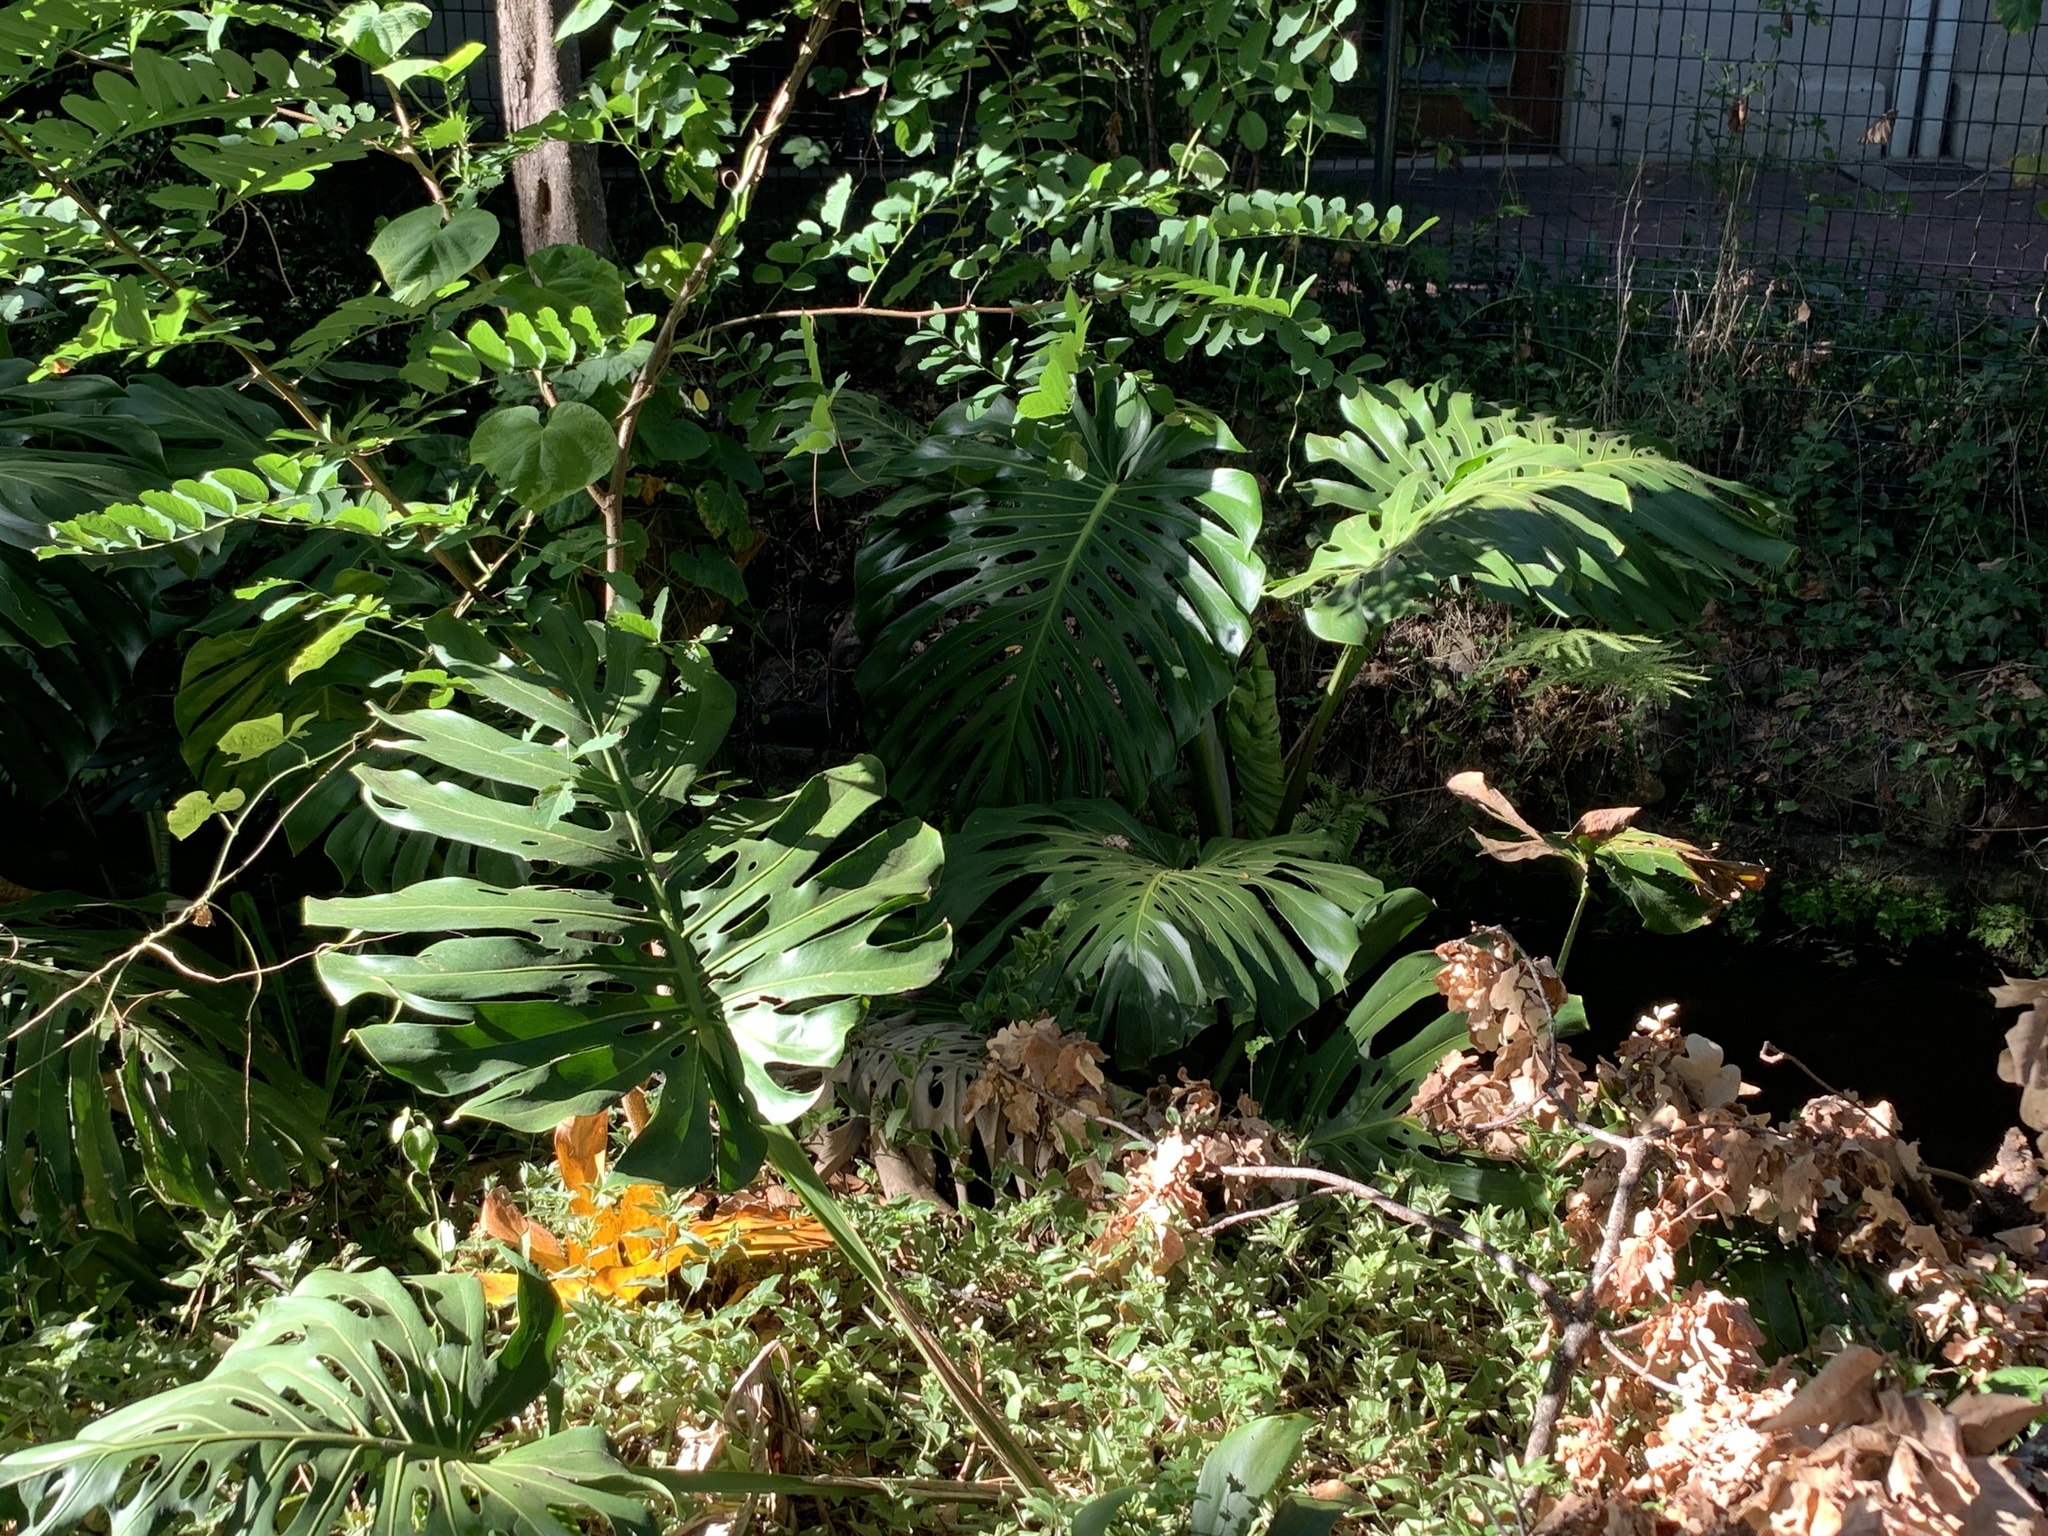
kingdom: Plantae
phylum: Tracheophyta
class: Liliopsida
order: Alismatales
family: Araceae
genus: Monstera
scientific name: Monstera deliciosa
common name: Cut-leaf-philodendron
